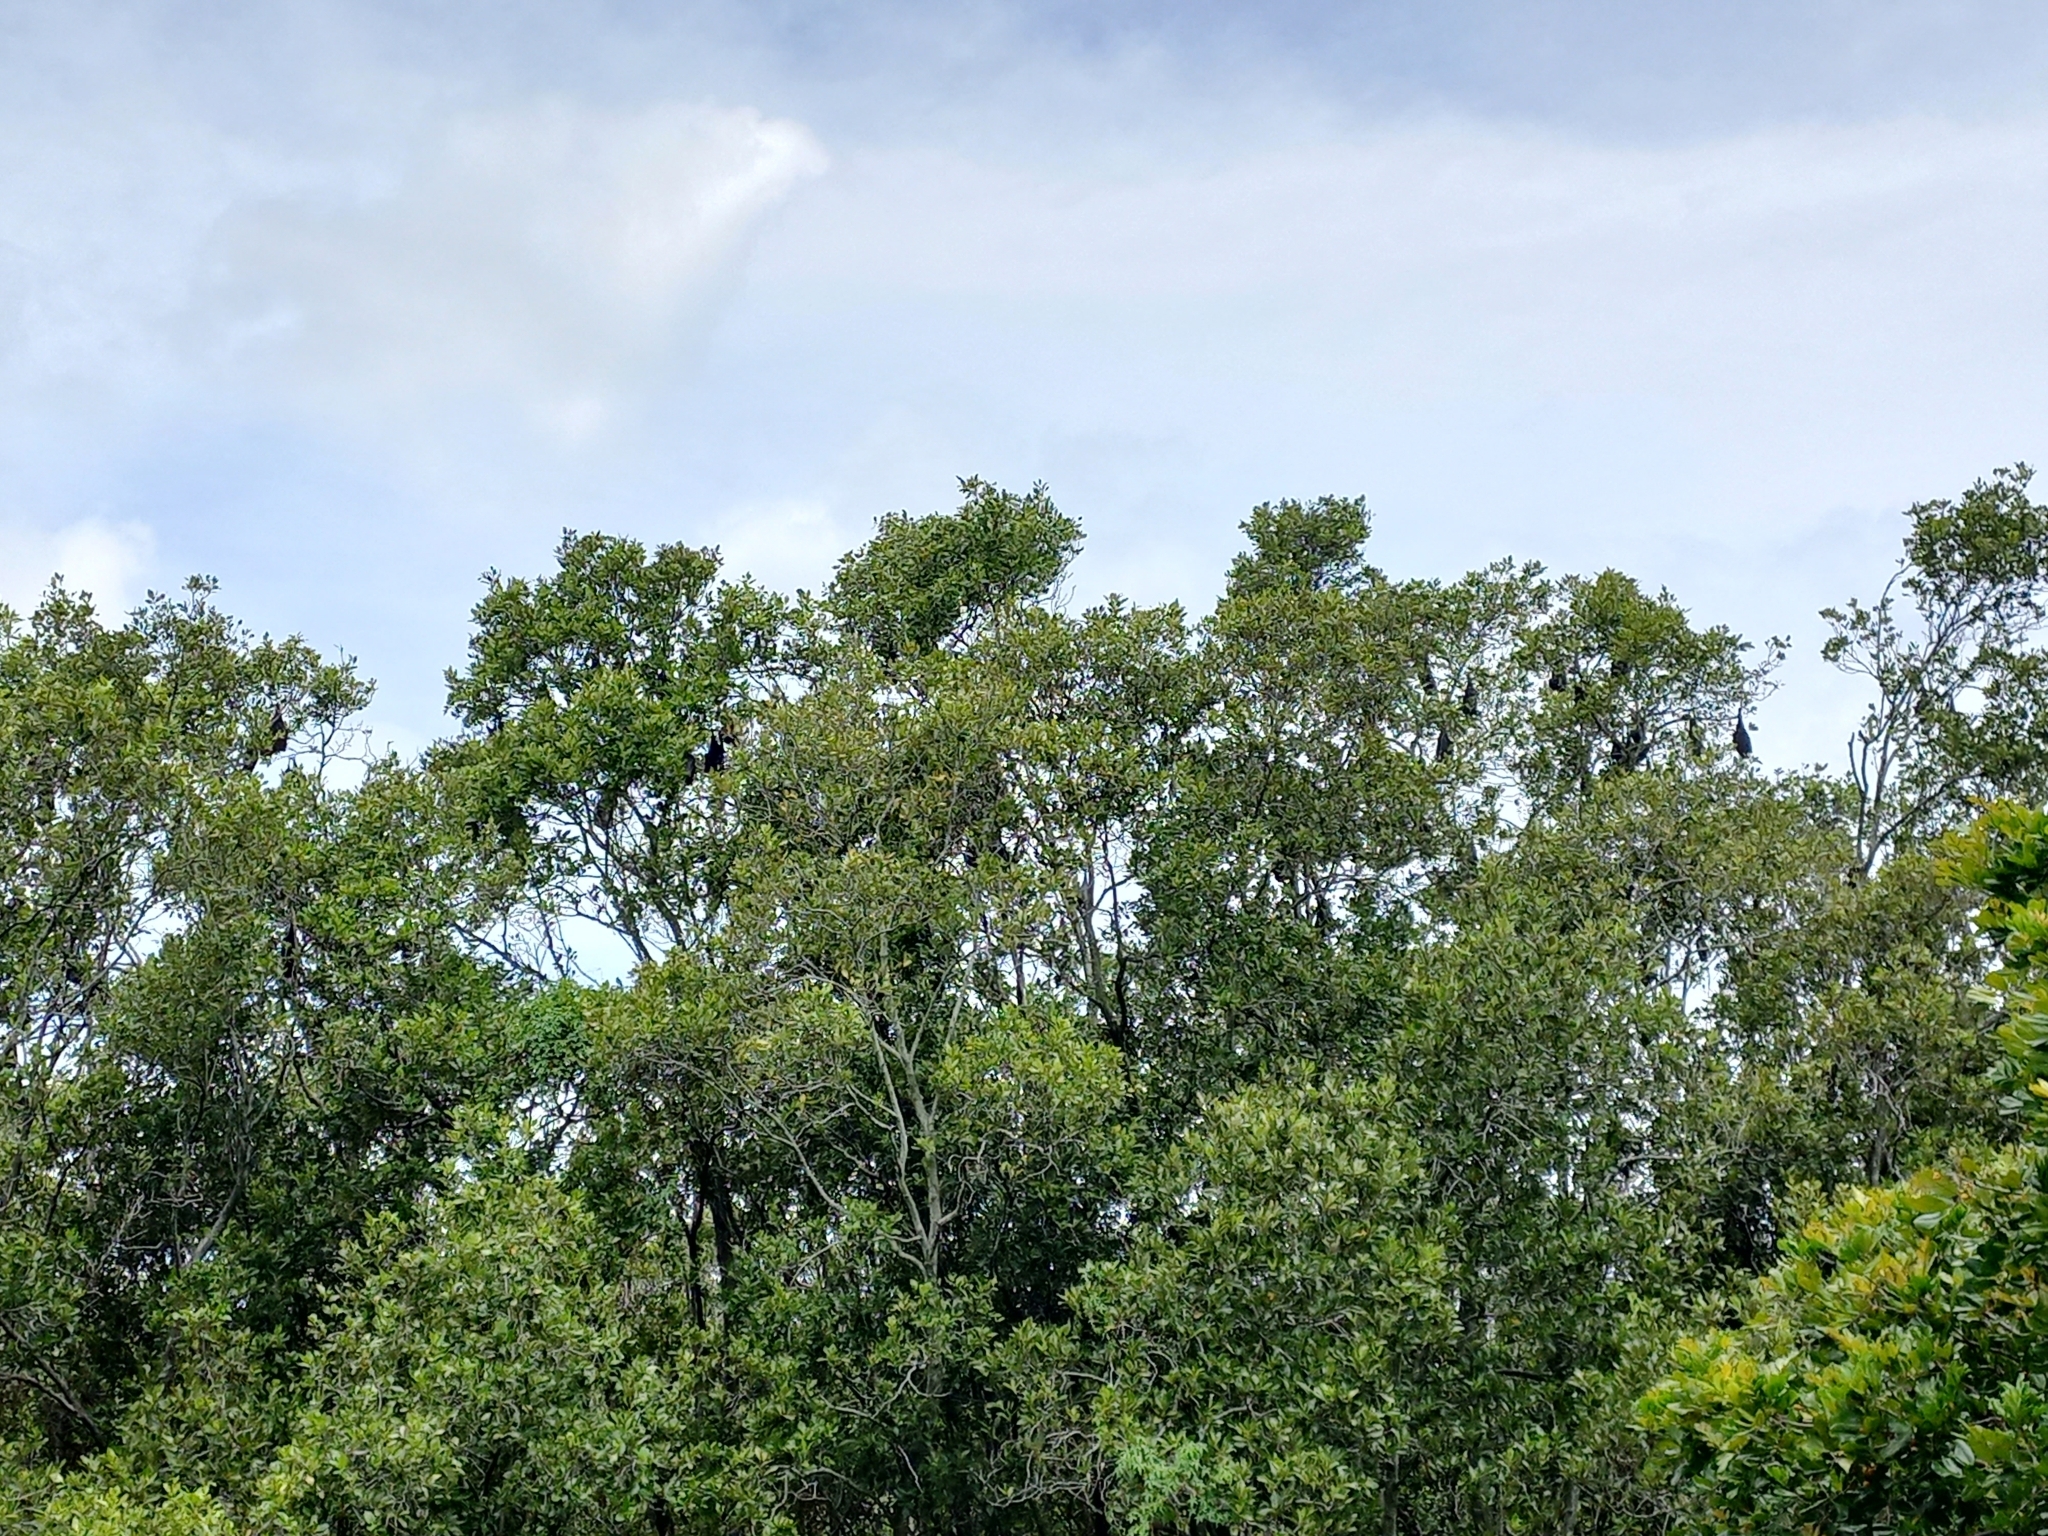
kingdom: Animalia
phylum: Chordata
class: Mammalia
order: Chiroptera
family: Pteropodidae
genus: Pteropus
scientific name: Pteropus alecto
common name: Black flying fox
